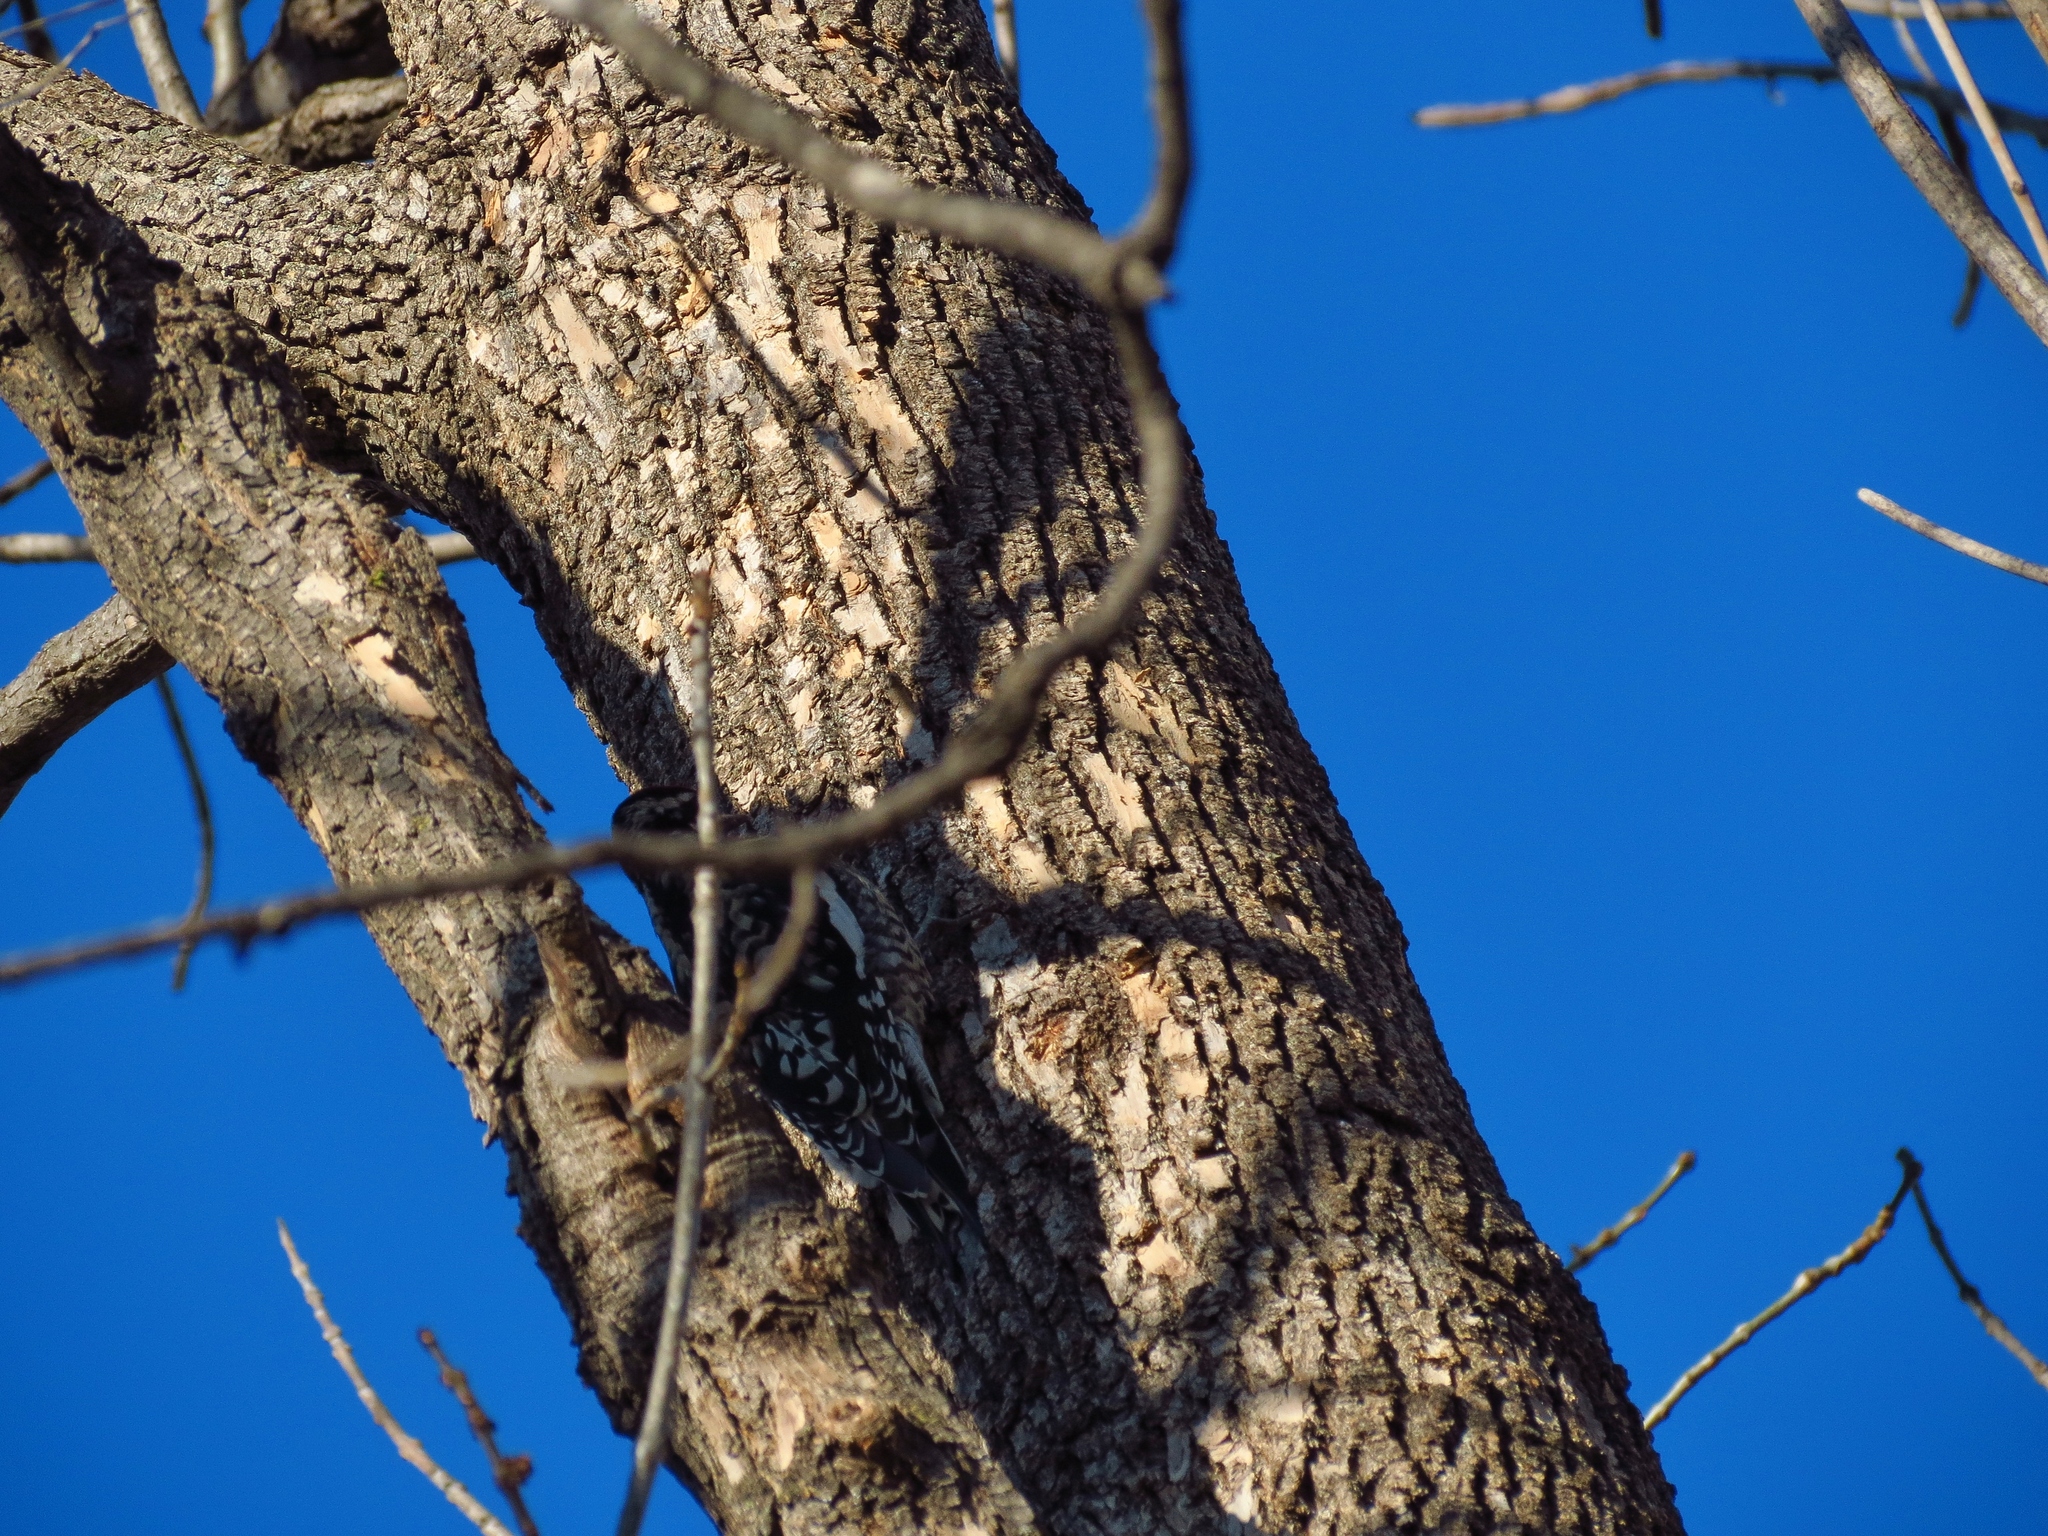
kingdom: Animalia
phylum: Chordata
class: Aves
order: Piciformes
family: Picidae
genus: Sphyrapicus
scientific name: Sphyrapicus varius
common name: Yellow-bellied sapsucker
